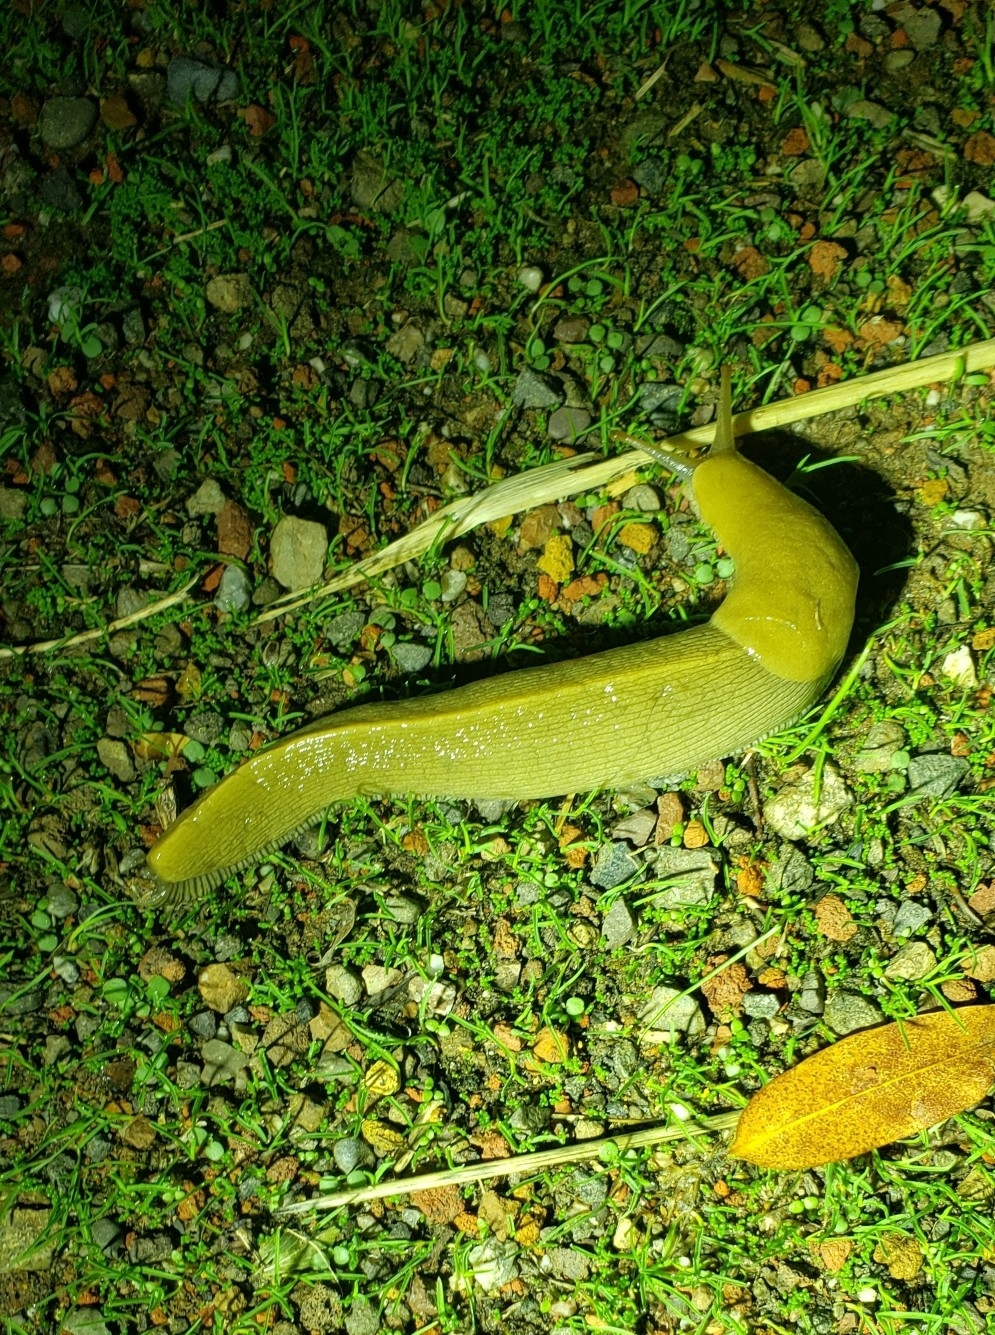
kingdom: Animalia
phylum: Mollusca
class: Gastropoda
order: Stylommatophora
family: Ariolimacidae
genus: Ariolimax
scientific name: Ariolimax buttoni
